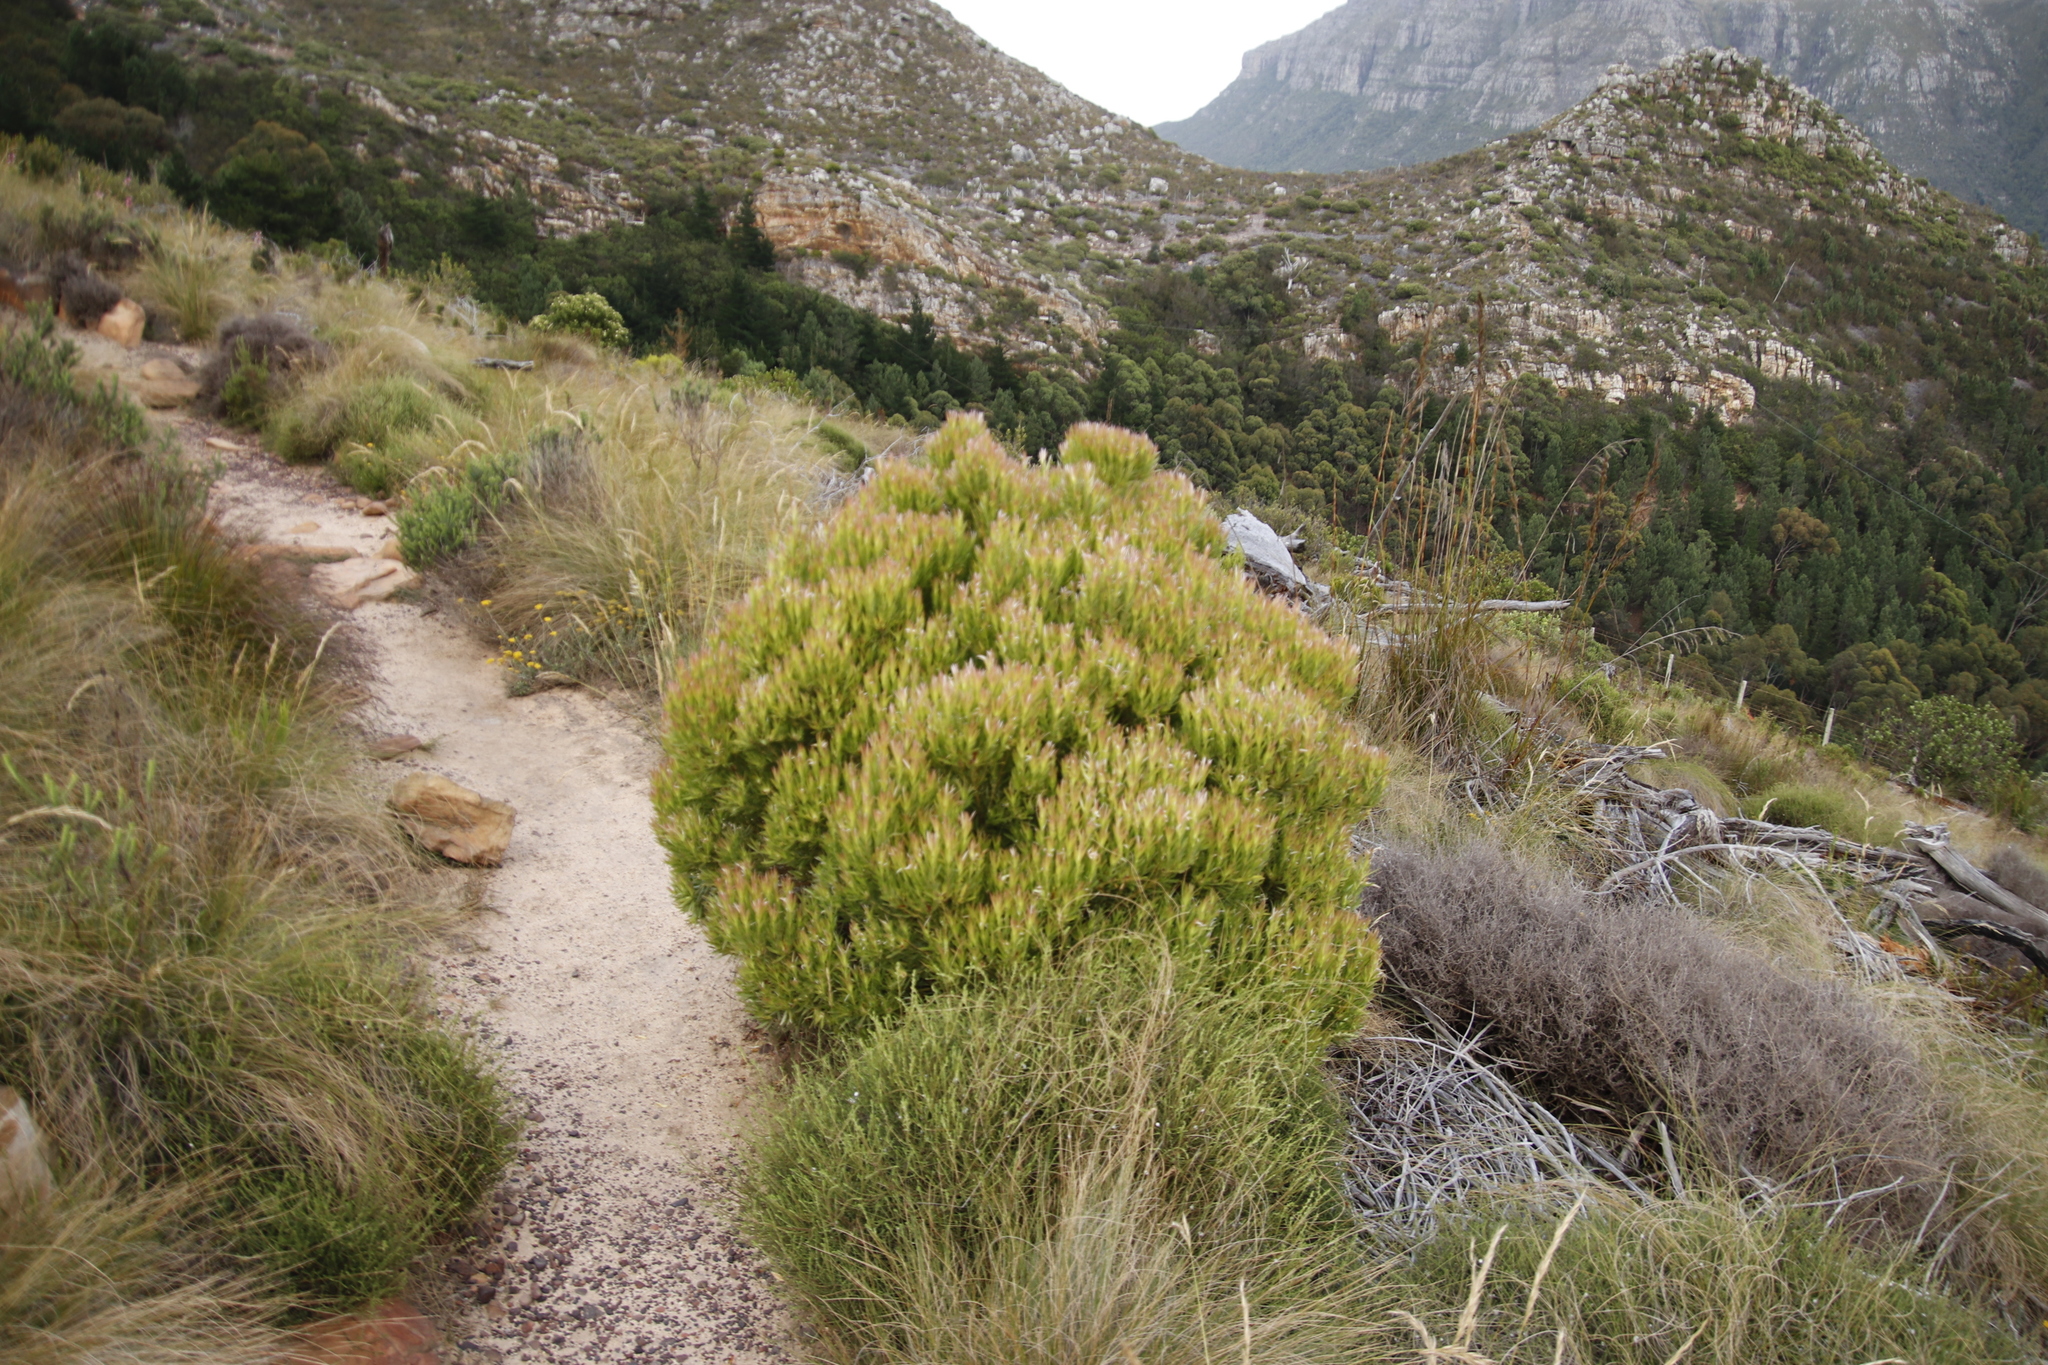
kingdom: Plantae
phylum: Tracheophyta
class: Magnoliopsida
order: Proteales
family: Proteaceae
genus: Leucadendron
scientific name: Leucadendron xanthoconus
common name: Sickle-leaf conebush
